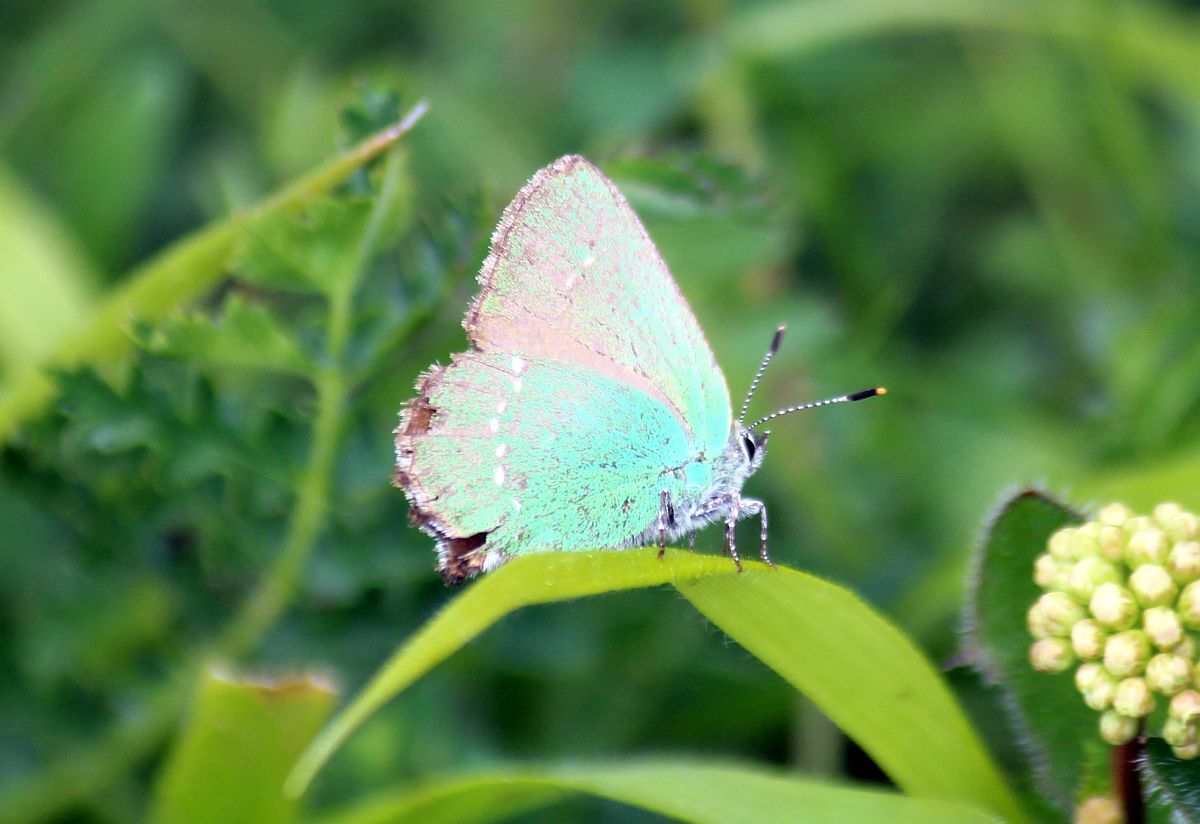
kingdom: Animalia
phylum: Arthropoda
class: Insecta
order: Lepidoptera
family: Lycaenidae
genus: Callophrys
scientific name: Callophrys rubi
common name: Green hairstreak
